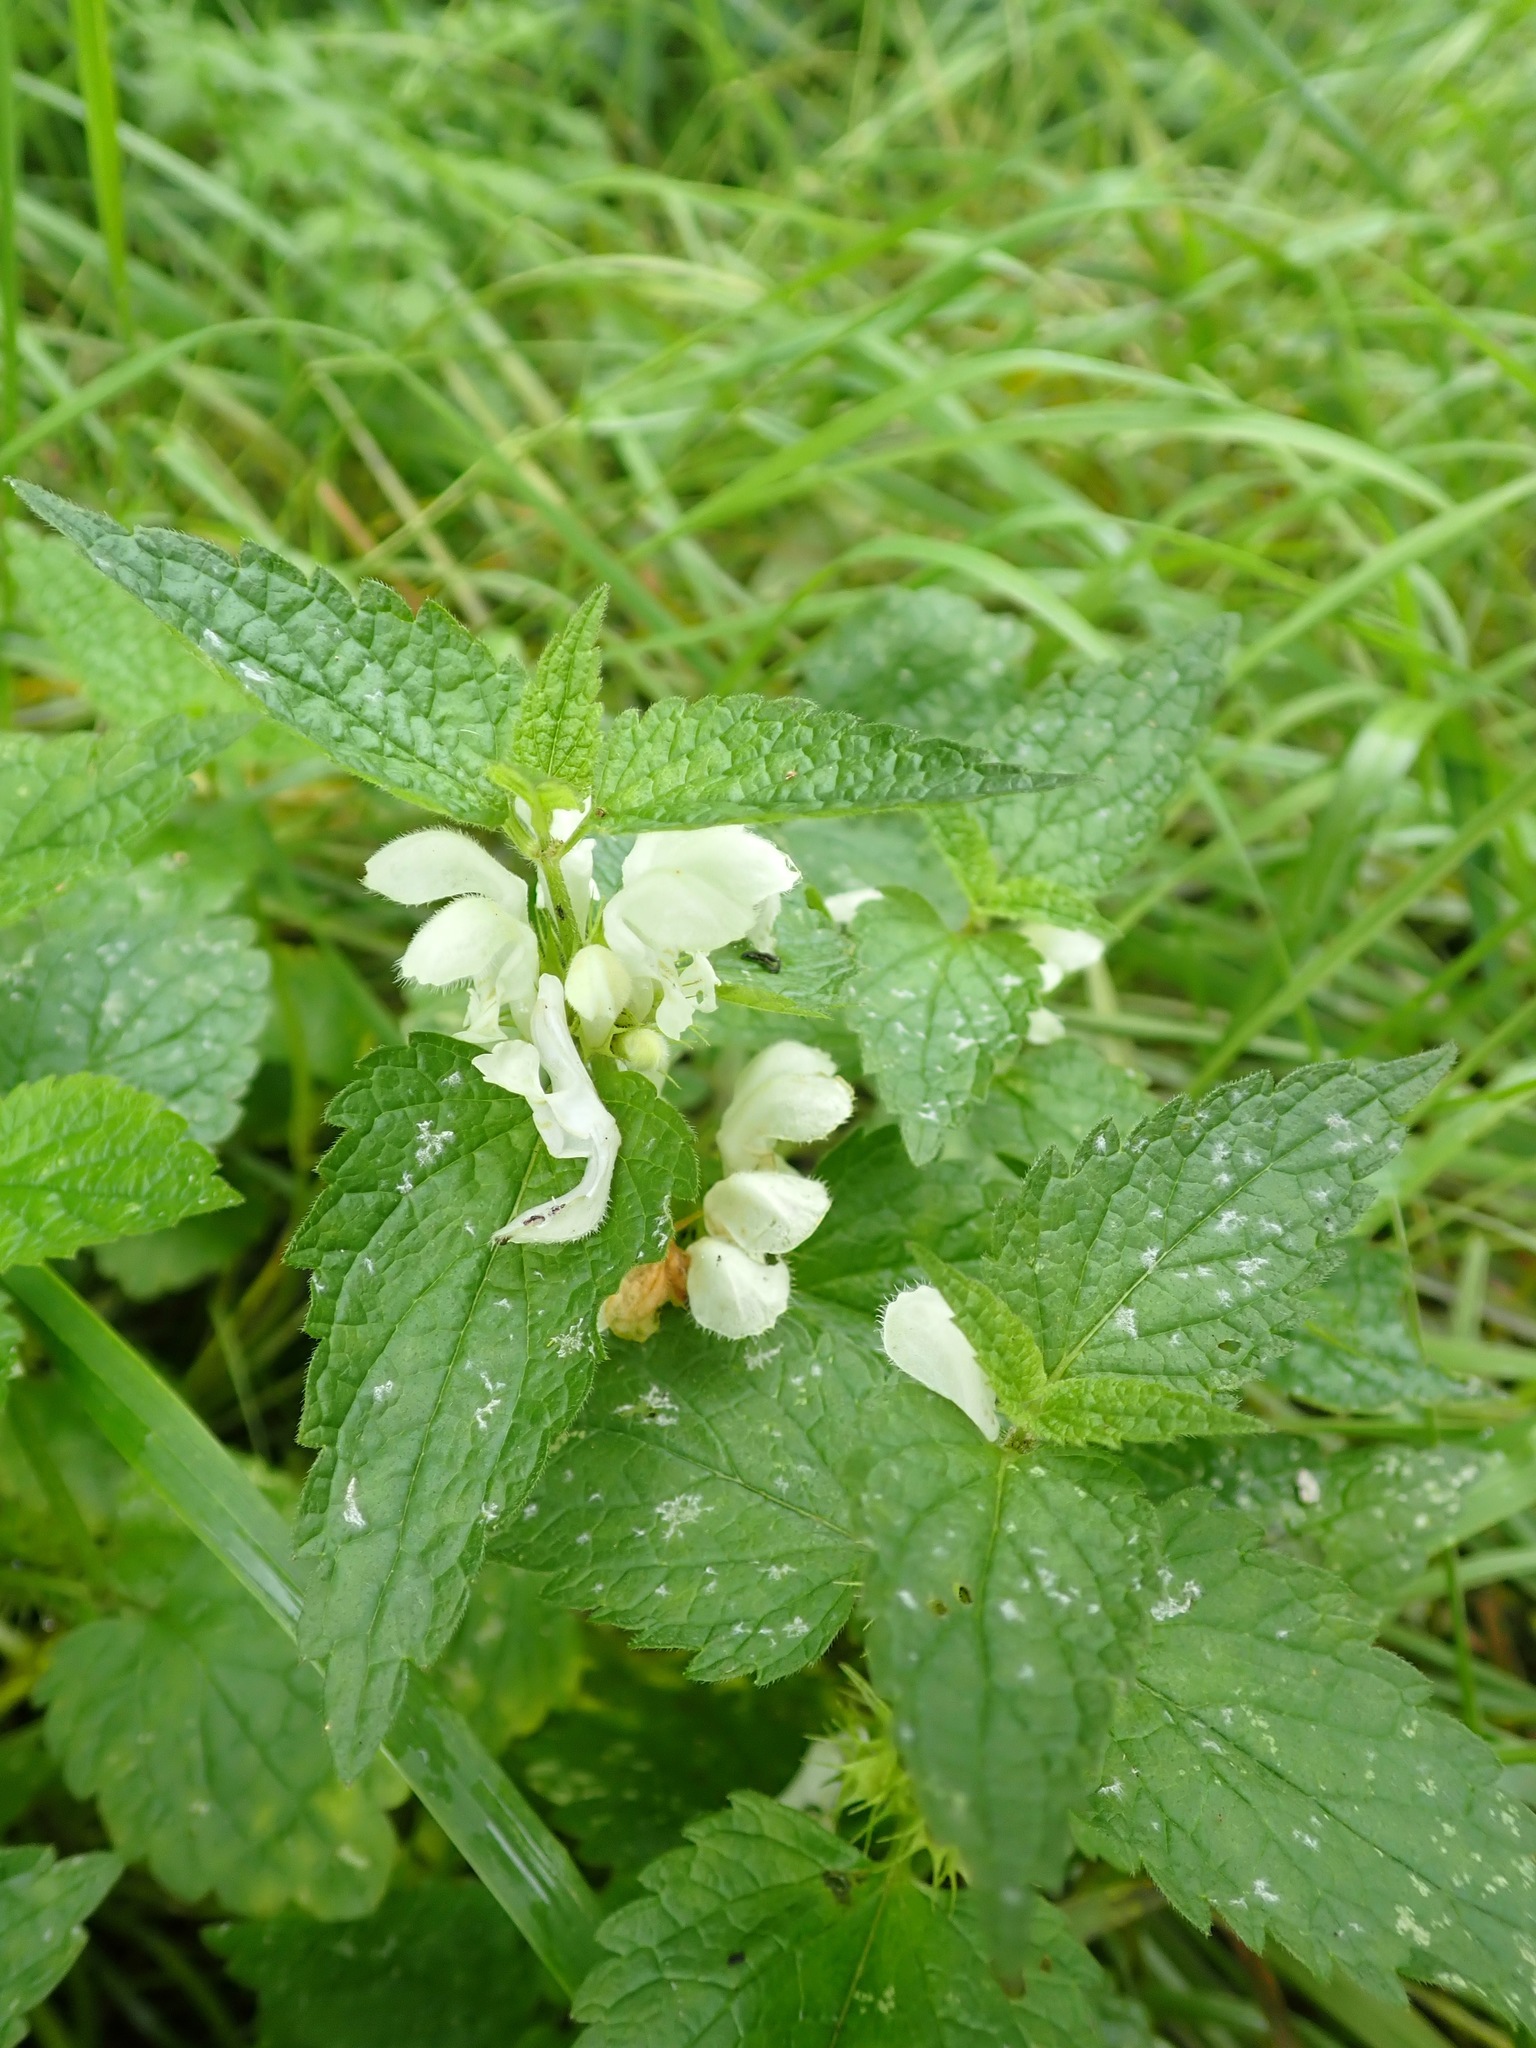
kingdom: Plantae
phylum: Tracheophyta
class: Magnoliopsida
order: Lamiales
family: Lamiaceae
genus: Lamium
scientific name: Lamium album
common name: White dead-nettle
